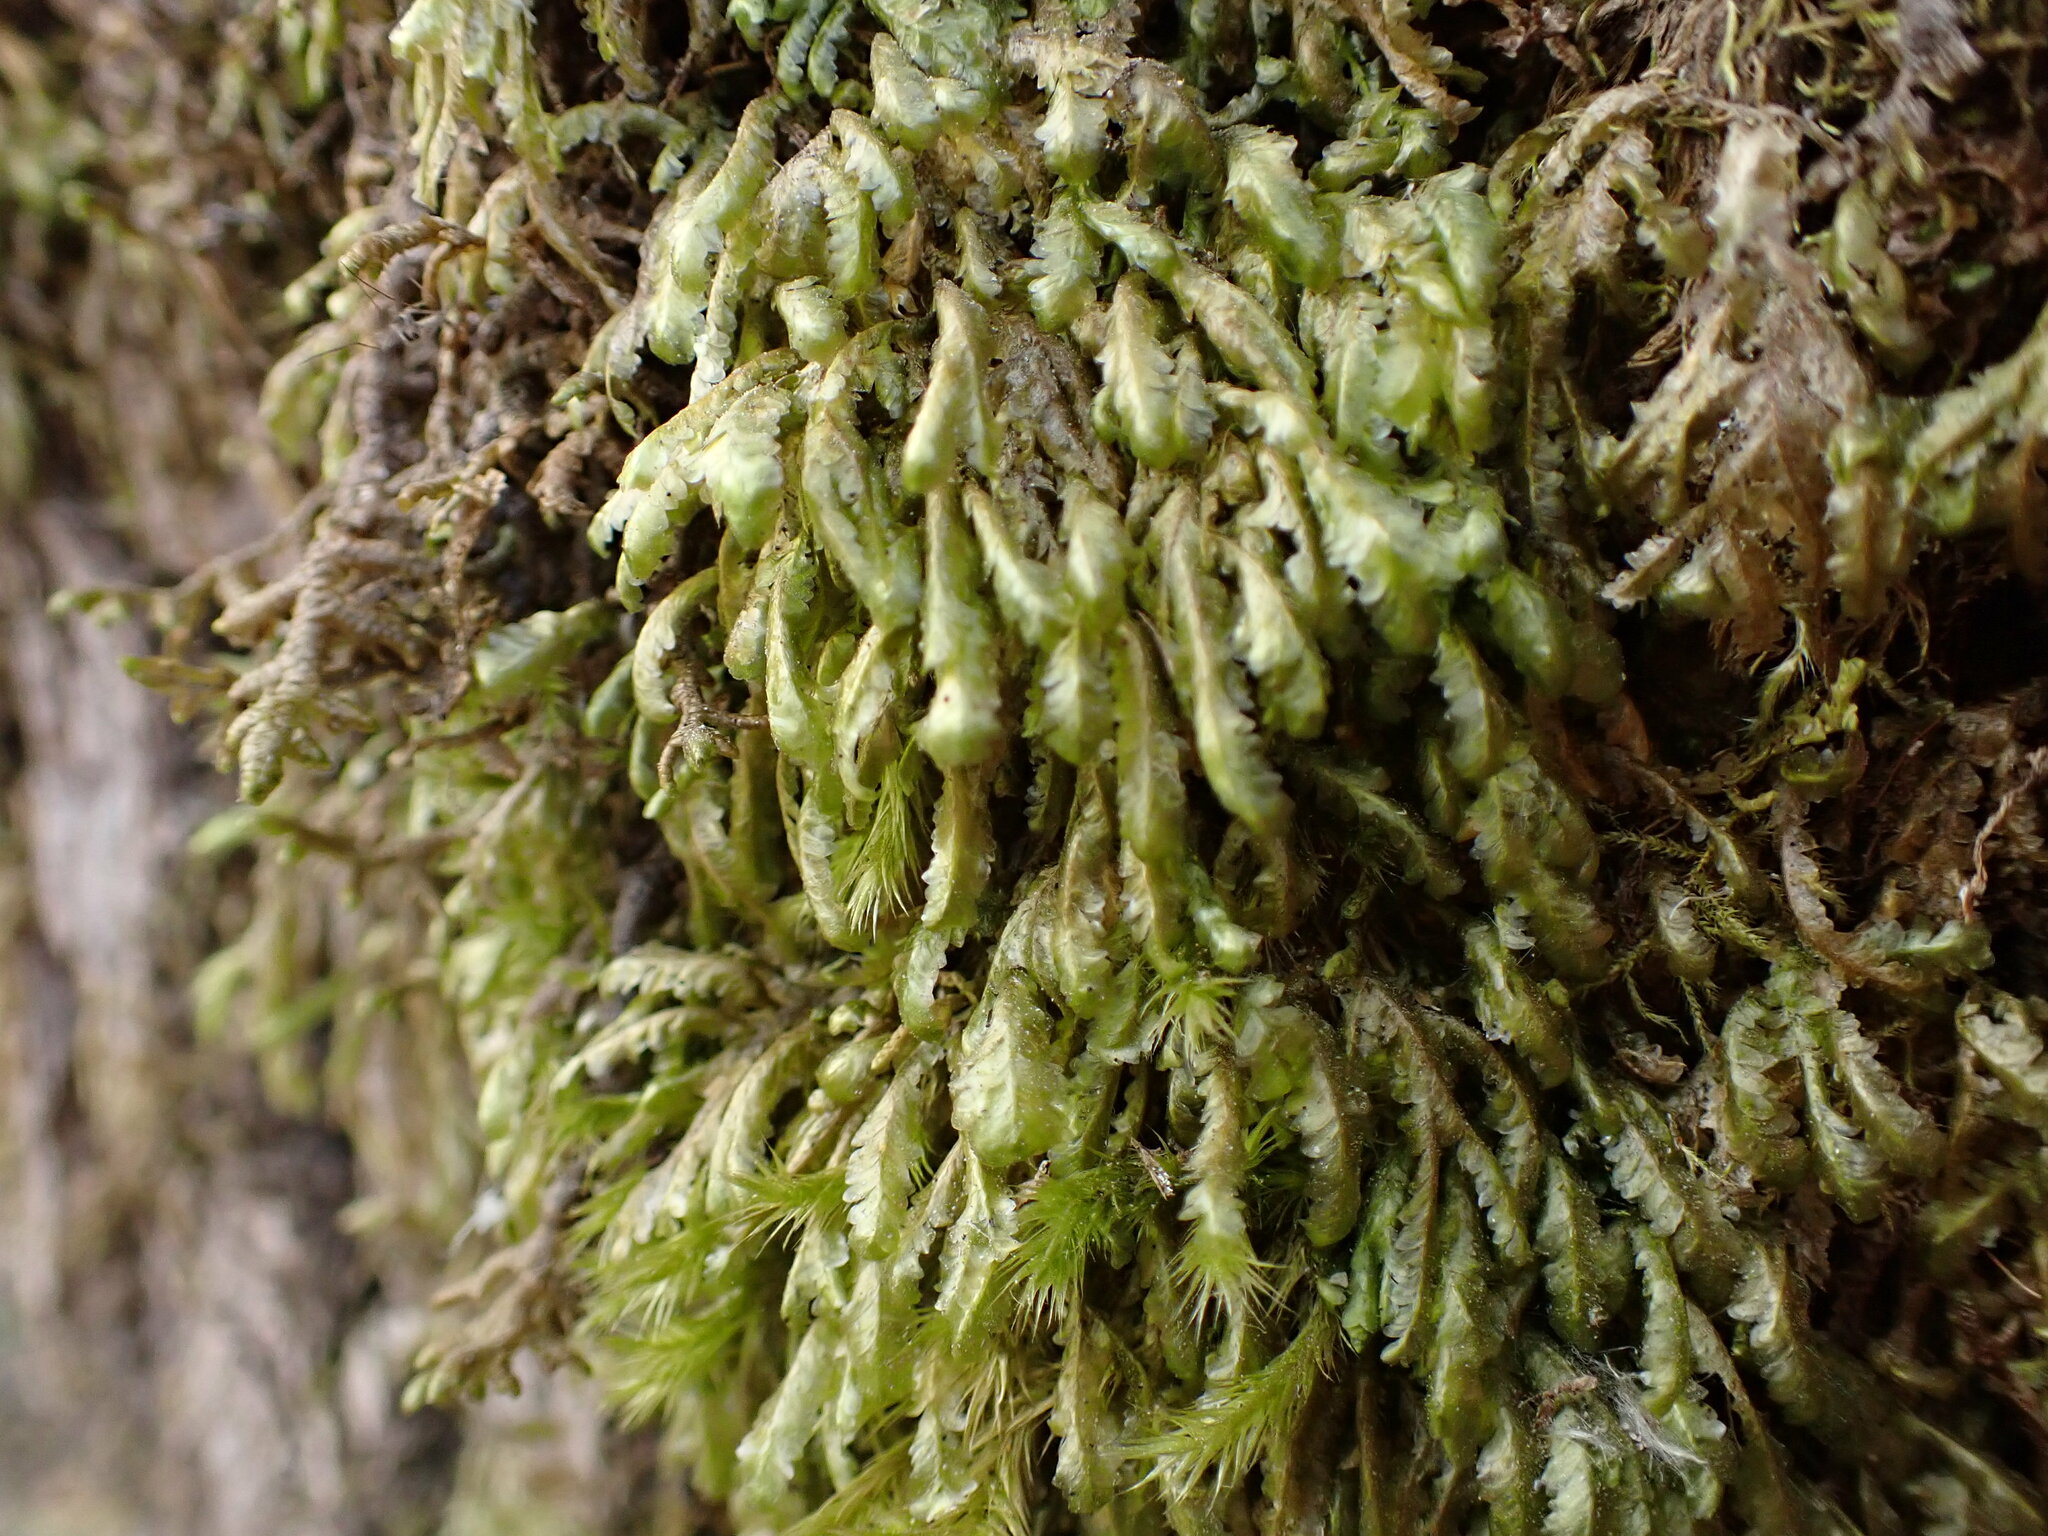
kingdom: Plantae
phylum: Bryophyta
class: Bryopsida
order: Hypnales
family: Neckeraceae
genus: Homalia
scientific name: Homalia trichomanoides
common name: Lime homalia moss
